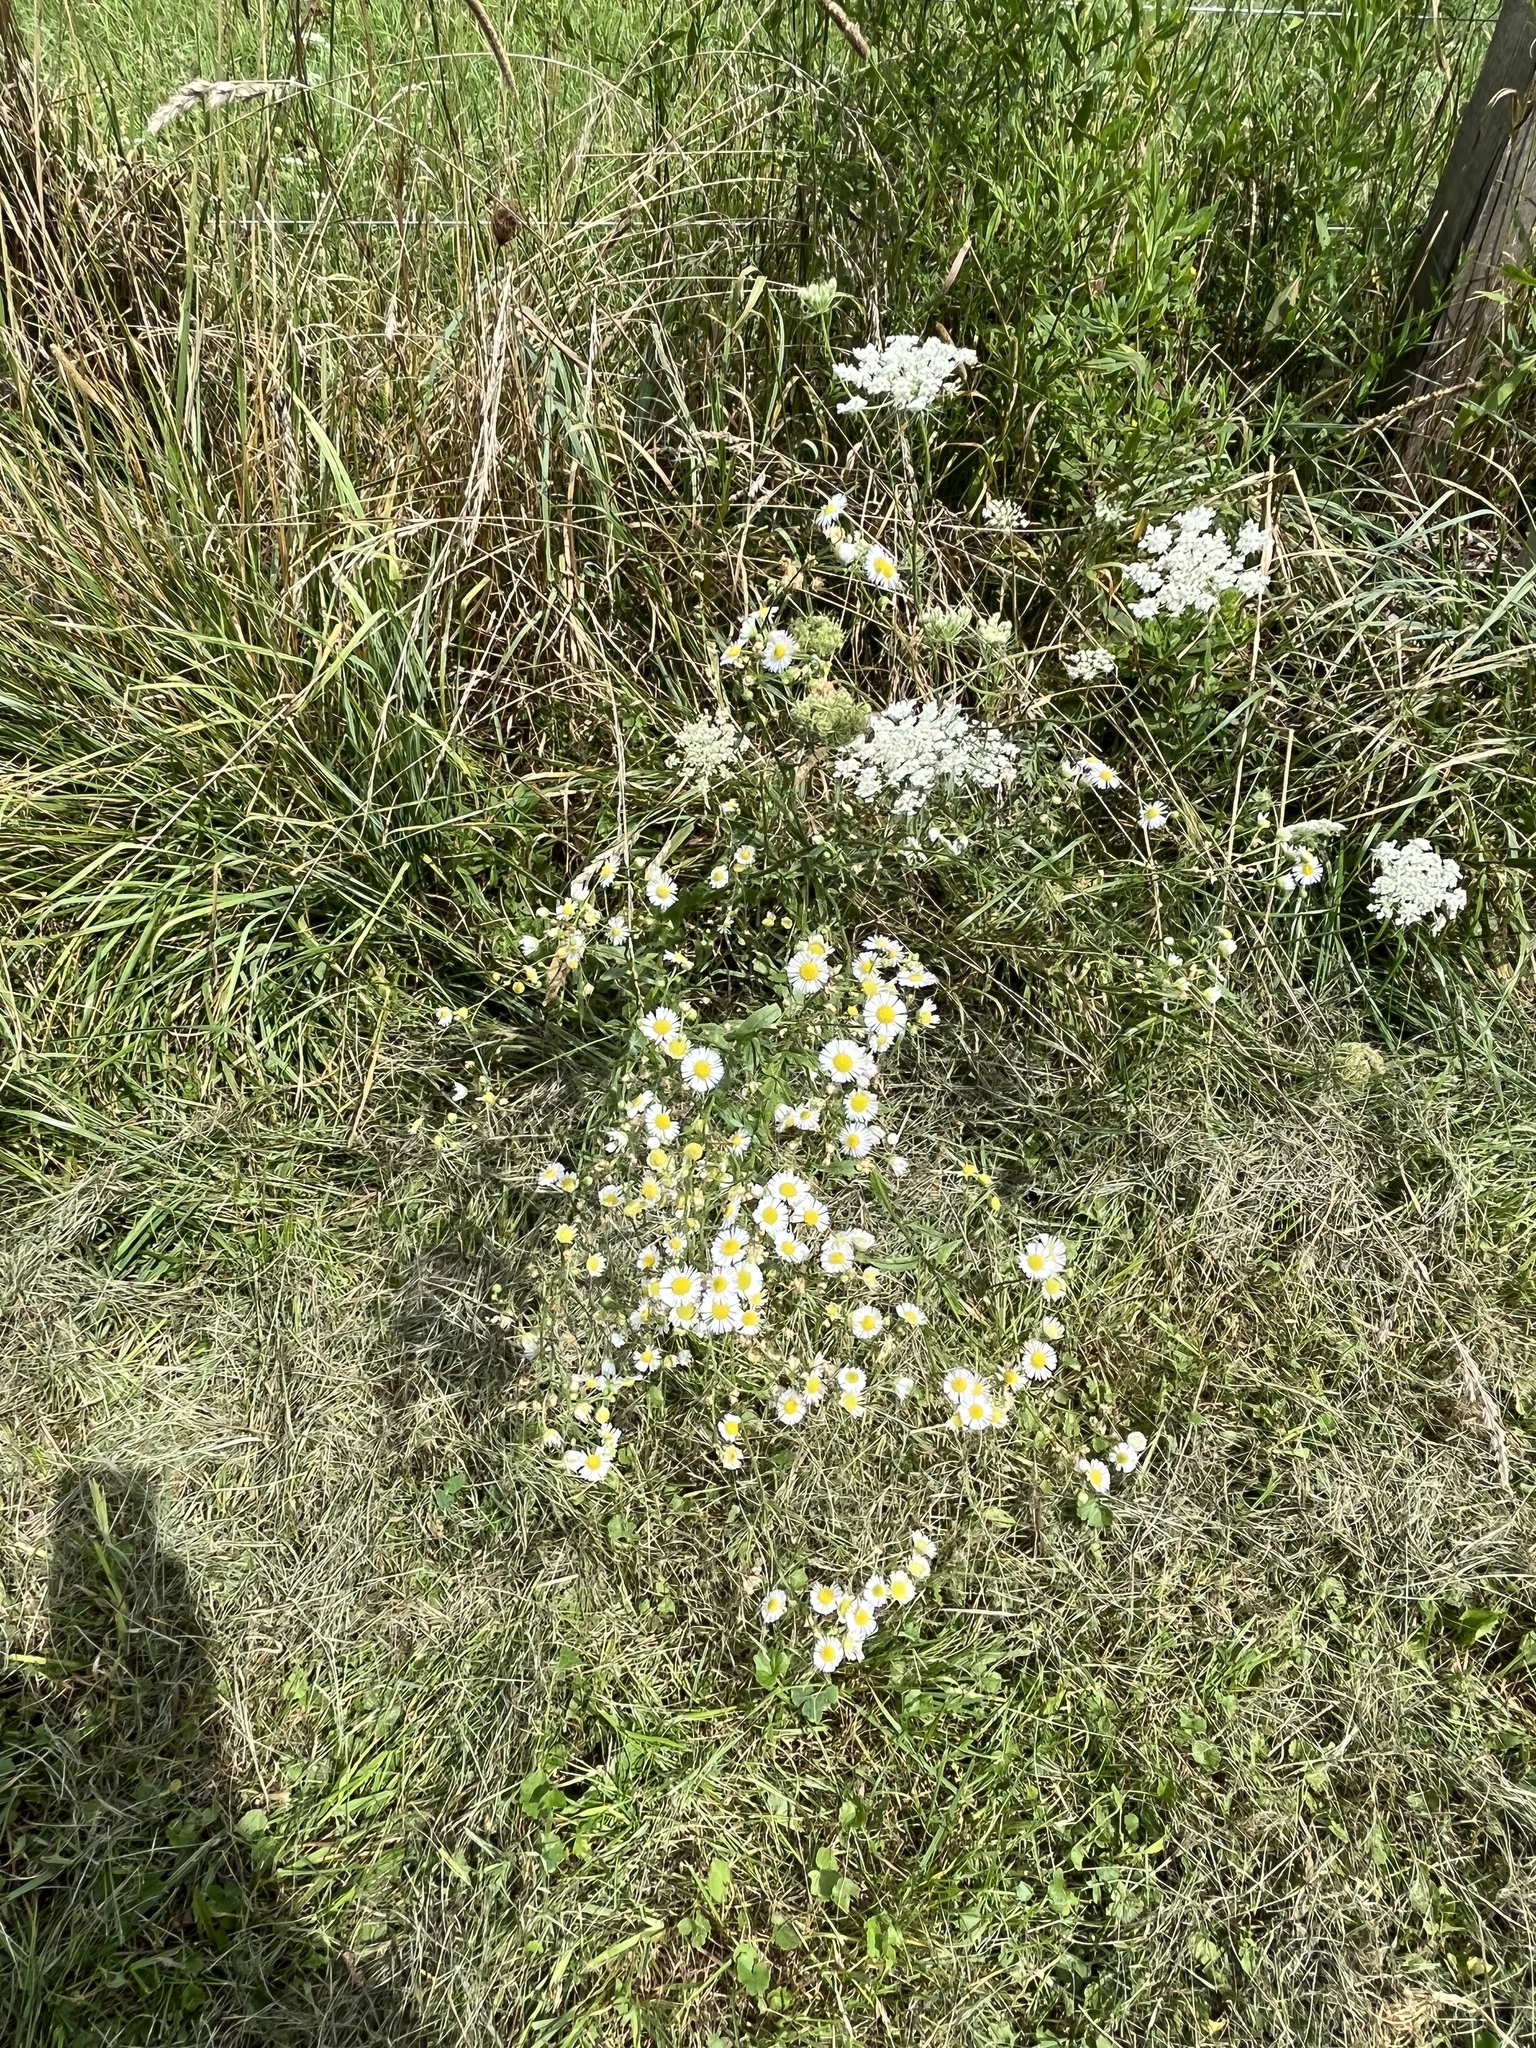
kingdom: Plantae
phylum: Tracheophyta
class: Magnoliopsida
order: Asterales
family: Asteraceae
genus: Erigeron
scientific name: Erigeron strigosus
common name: Common eastern fleabane
